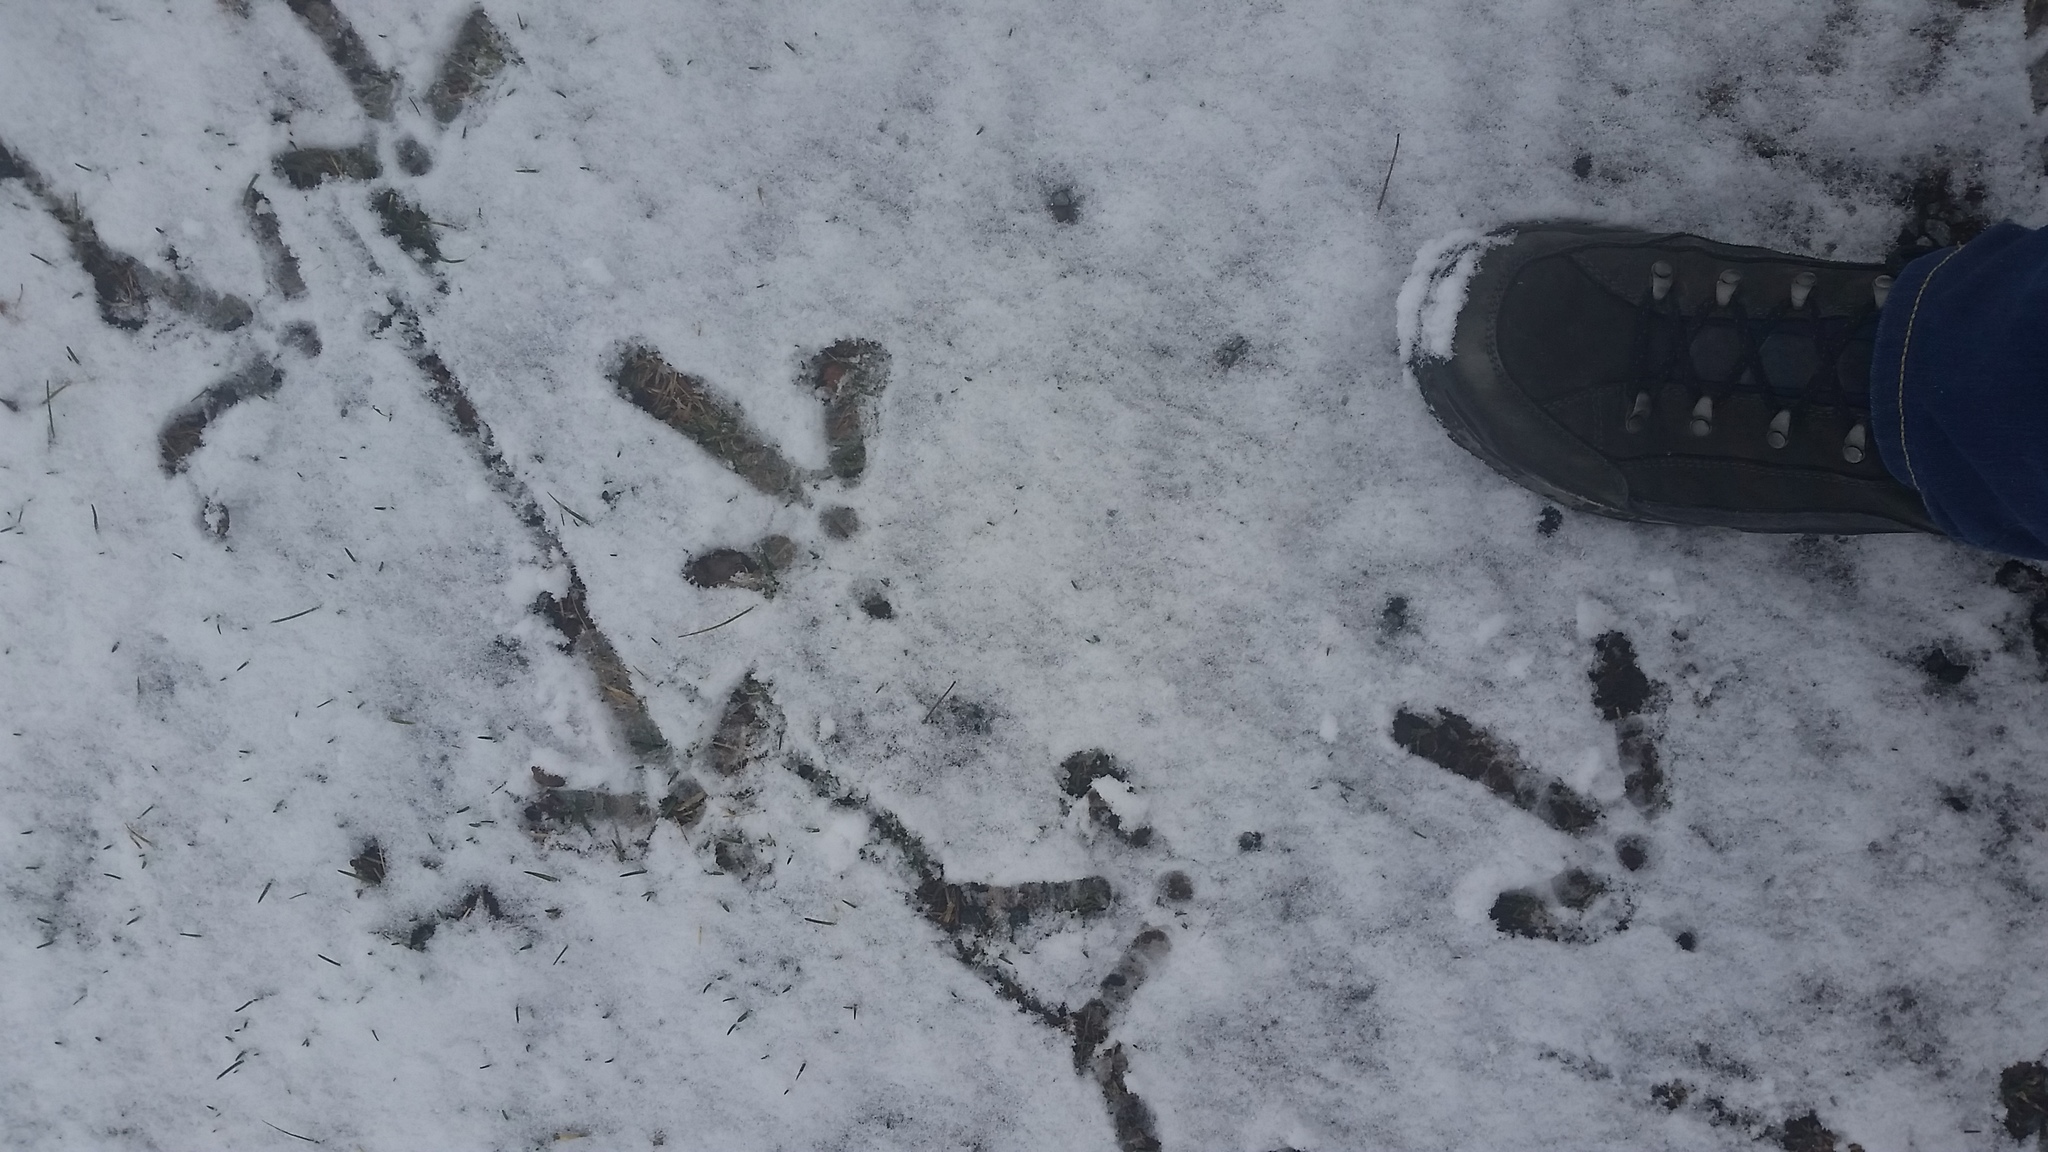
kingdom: Animalia
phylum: Chordata
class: Aves
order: Gruiformes
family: Gruidae
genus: Grus
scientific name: Grus canadensis
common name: Sandhill crane
